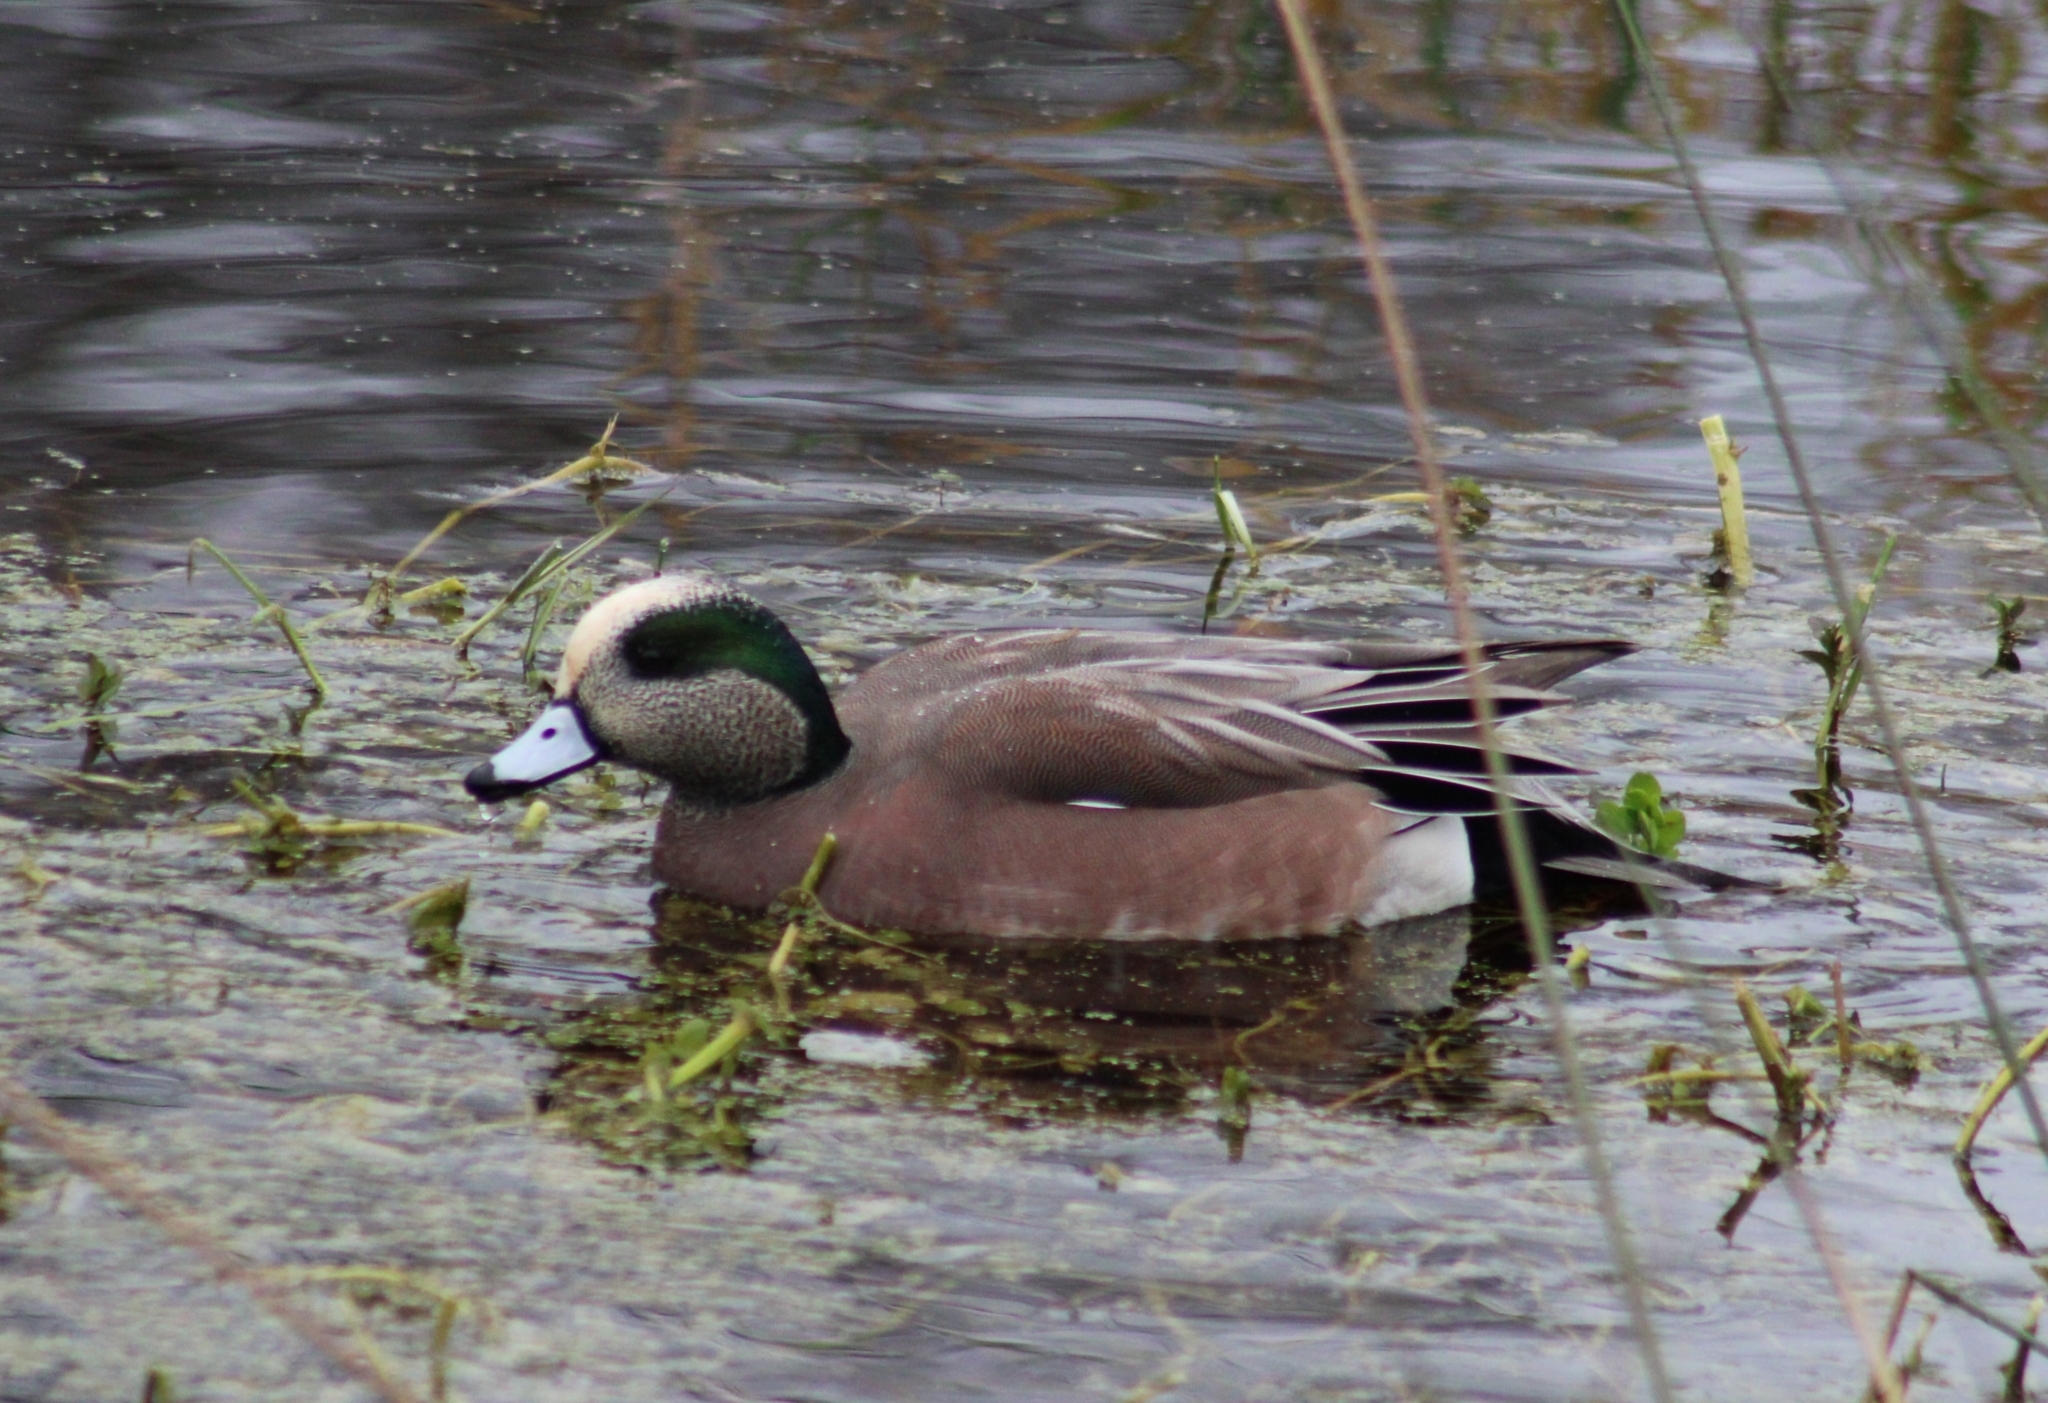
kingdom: Animalia
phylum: Chordata
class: Aves
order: Anseriformes
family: Anatidae
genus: Mareca
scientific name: Mareca americana
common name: American wigeon
